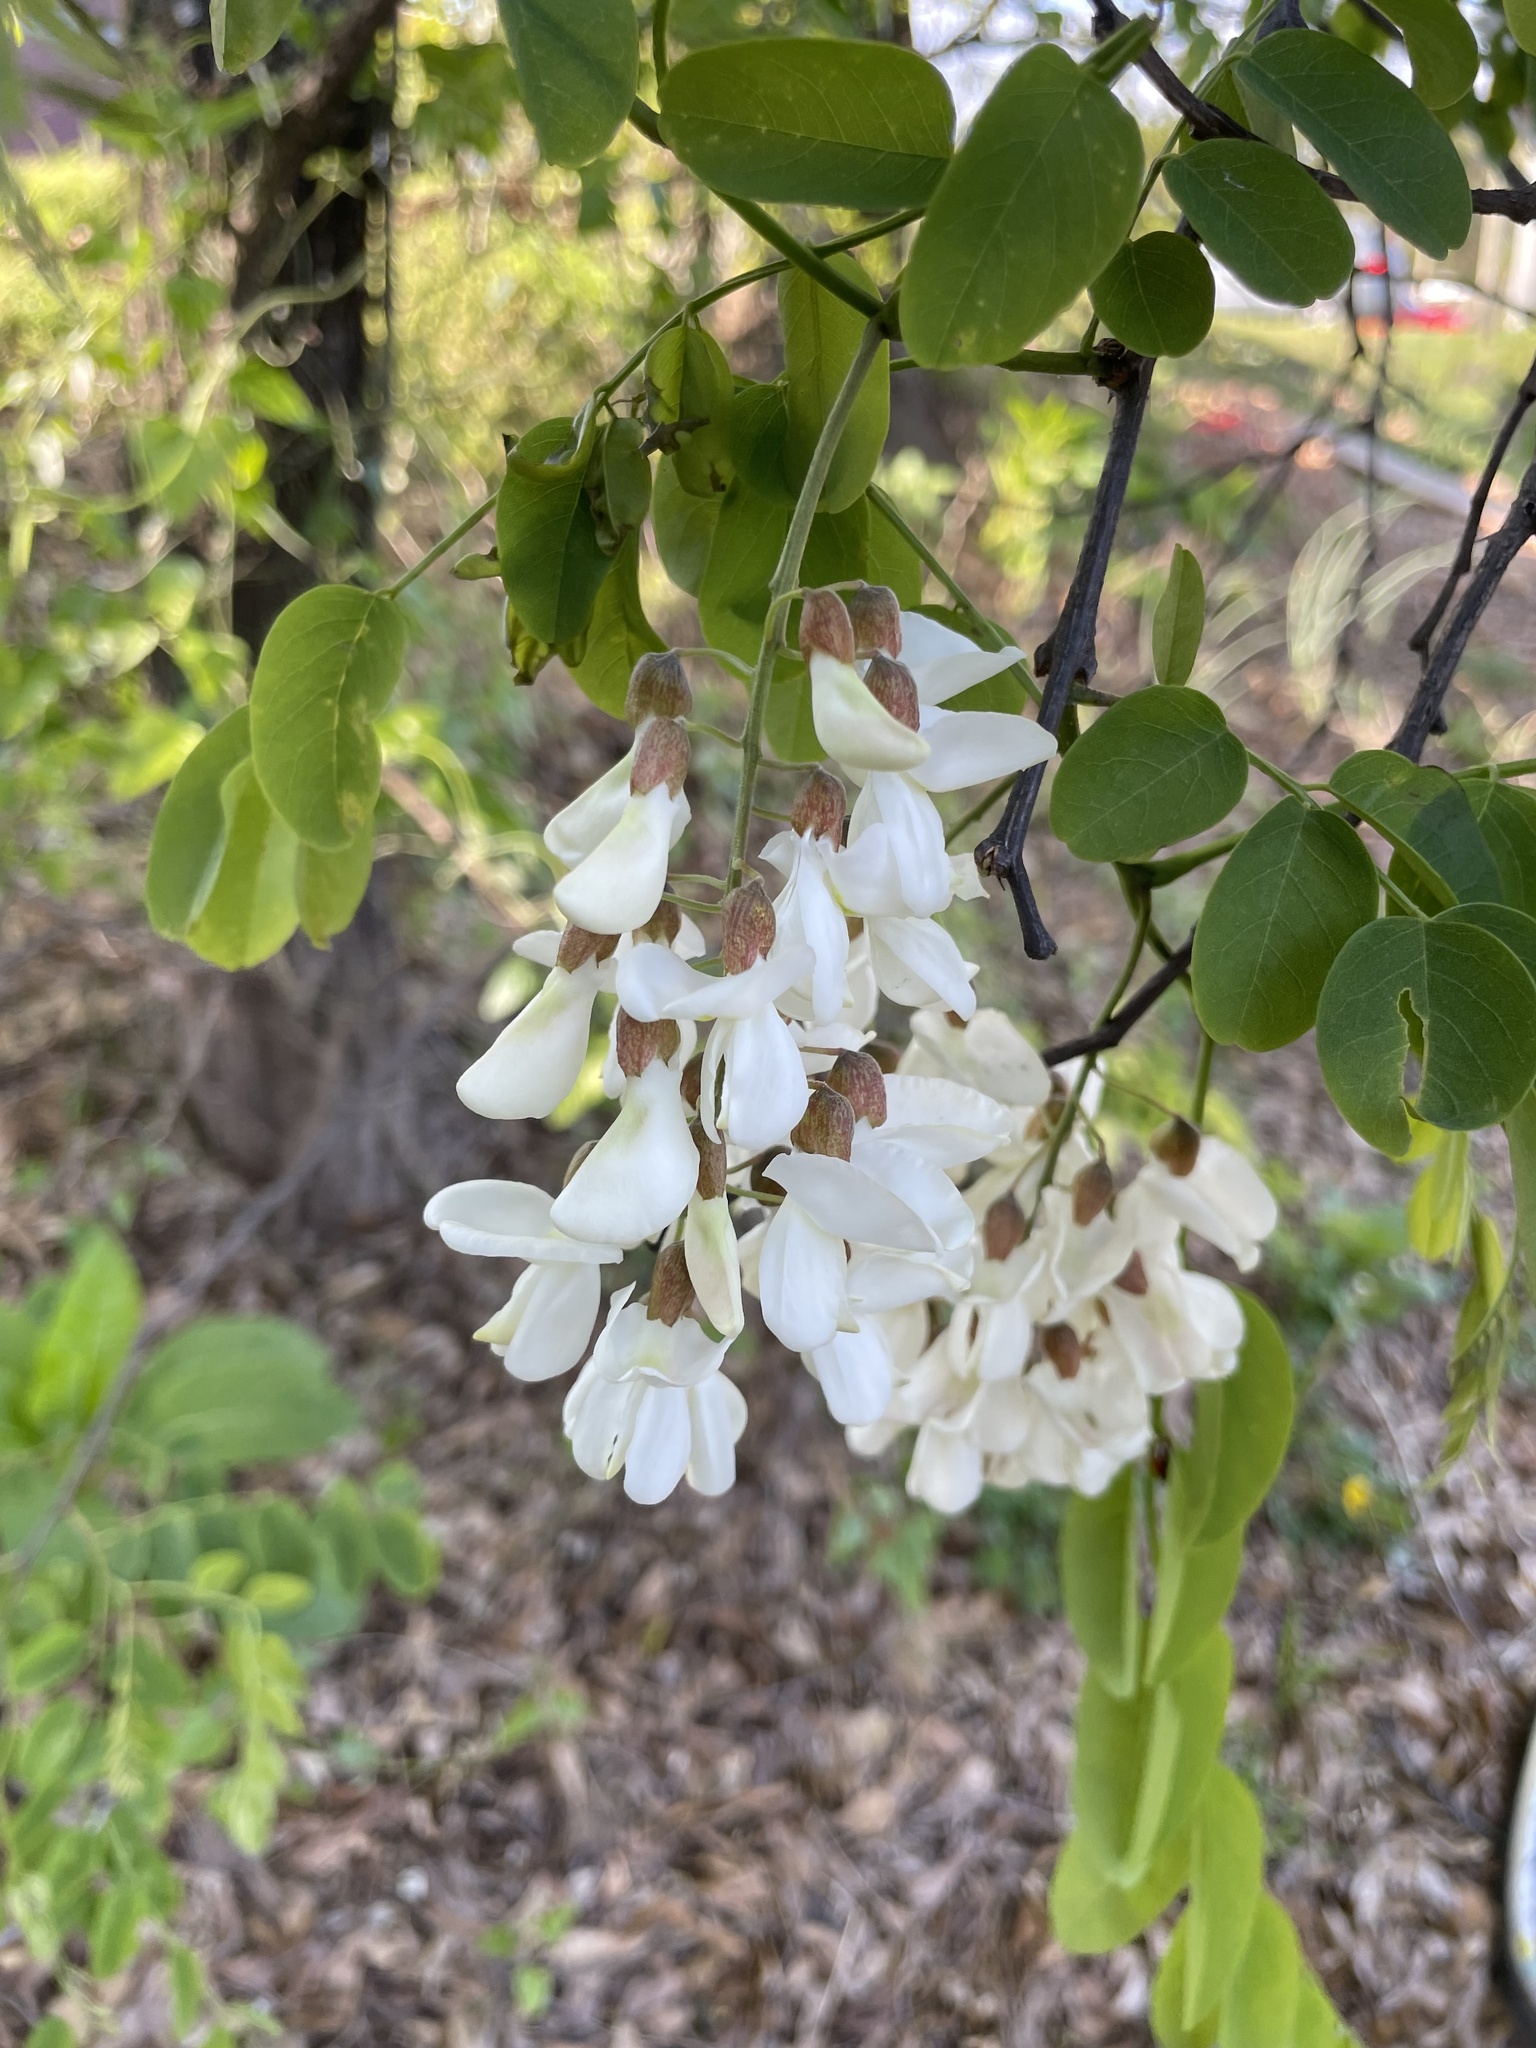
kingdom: Plantae
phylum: Tracheophyta
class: Magnoliopsida
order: Fabales
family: Fabaceae
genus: Robinia
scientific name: Robinia pseudoacacia
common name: Black locust
